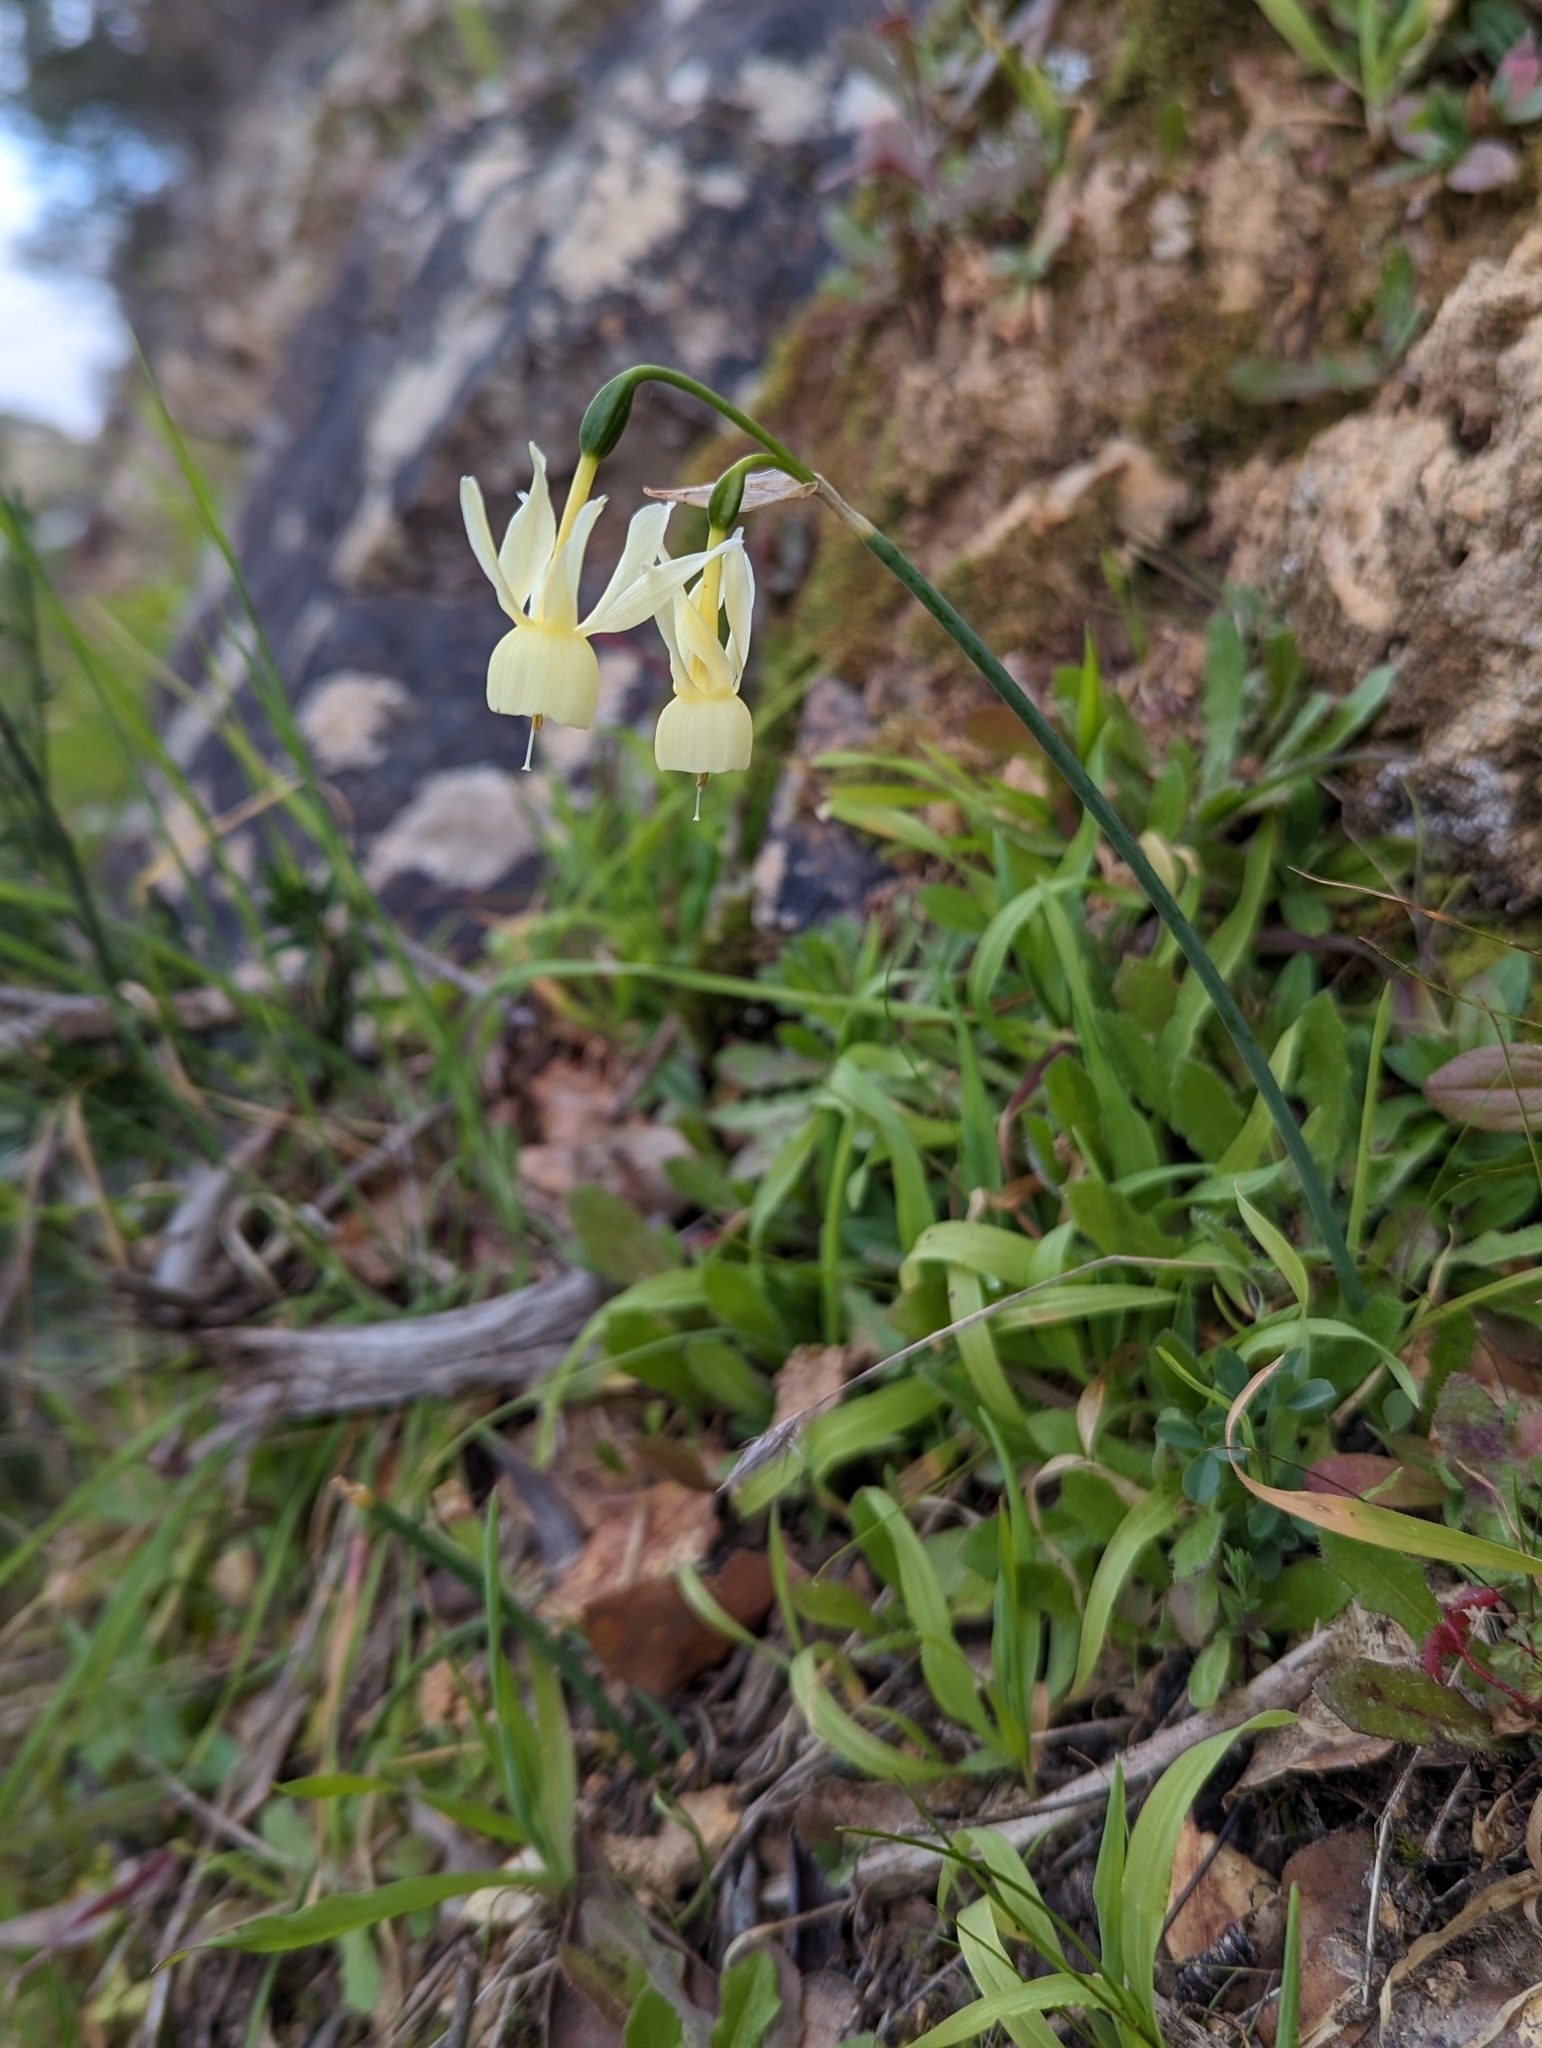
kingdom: Plantae
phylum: Tracheophyta
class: Liliopsida
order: Asparagales
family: Amaryllidaceae
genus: Narcissus
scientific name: Narcissus triandrus
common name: Angel's-tears
